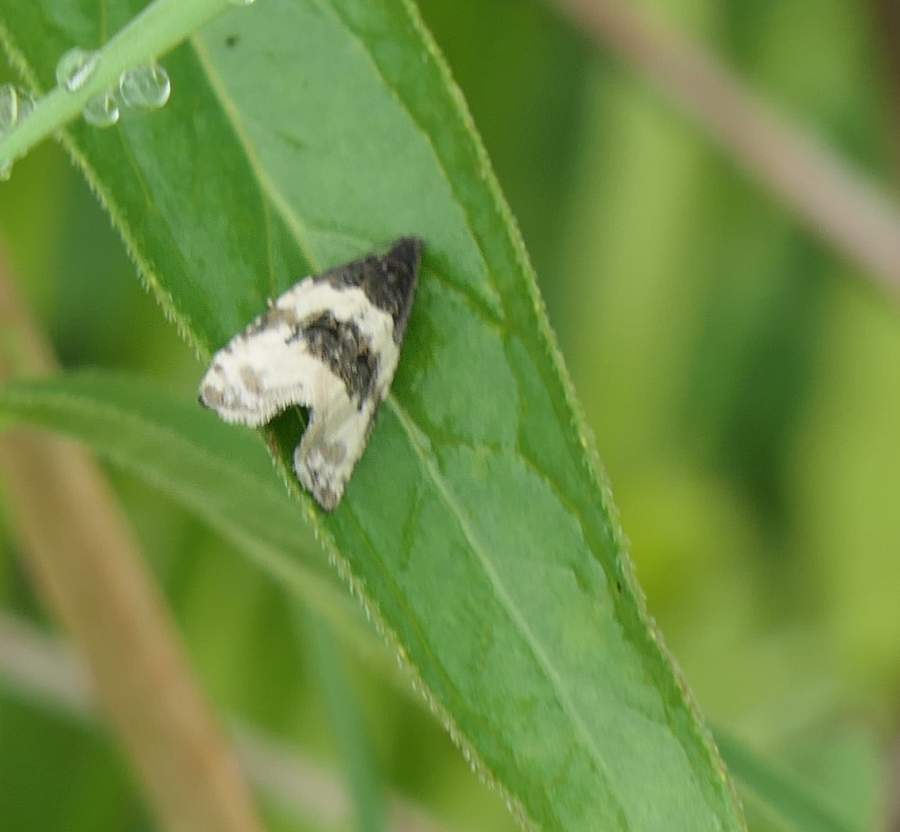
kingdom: Animalia
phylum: Arthropoda
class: Insecta
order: Lepidoptera
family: Tortricidae
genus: Olethreutes
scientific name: Olethreutes bipartitana
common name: Divided olethreutes moth
